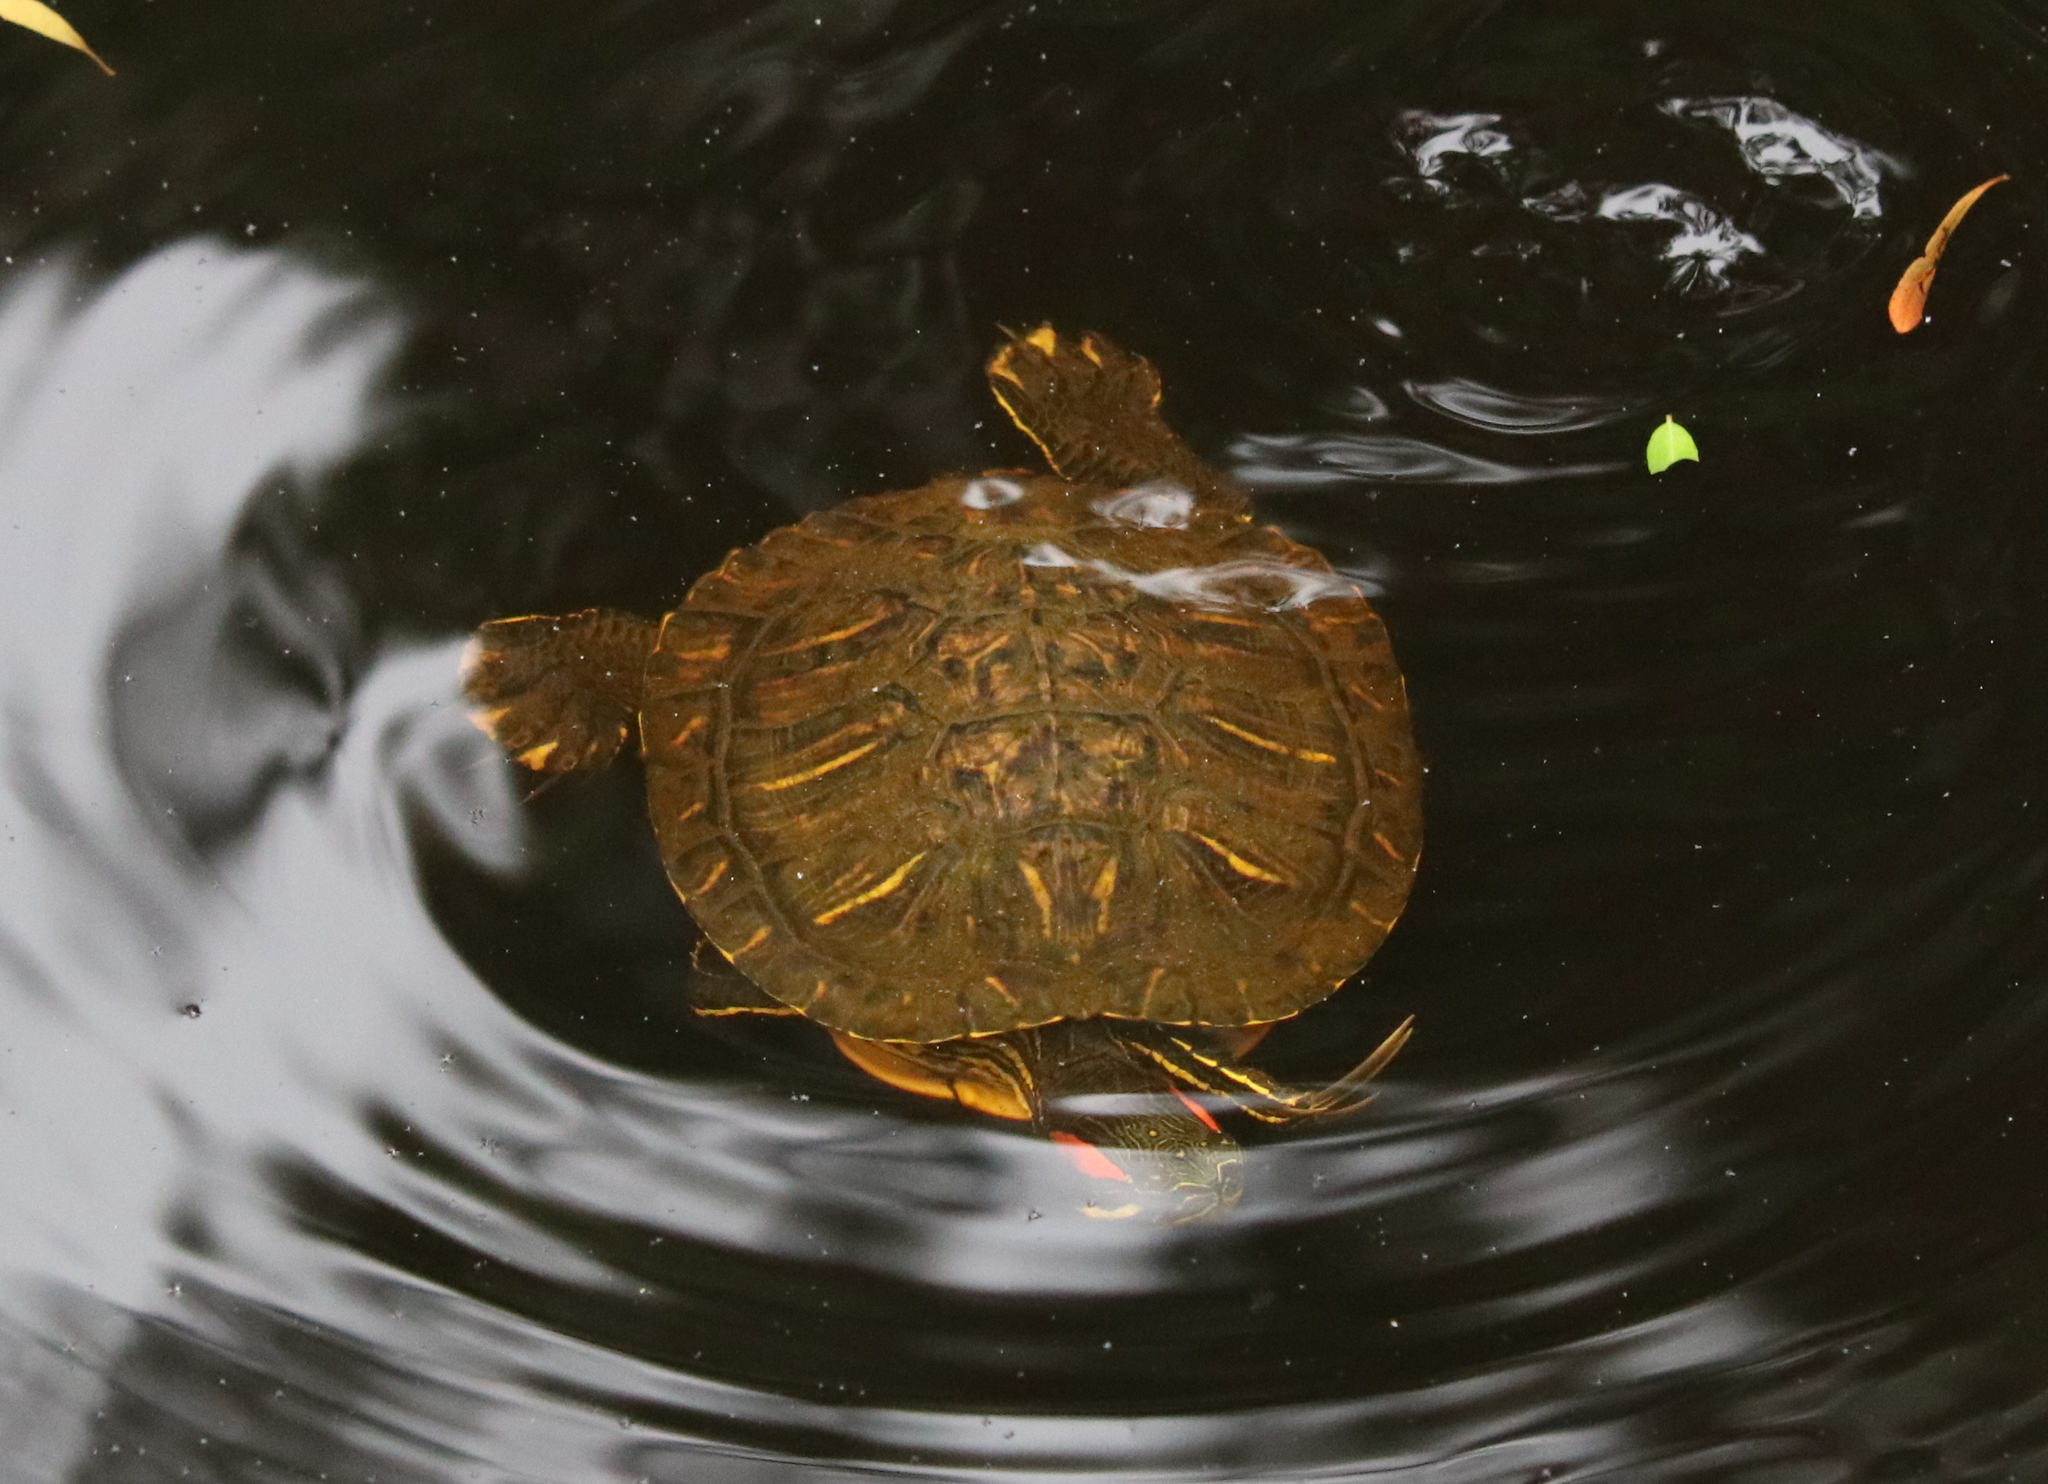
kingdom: Animalia
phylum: Chordata
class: Testudines
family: Emydidae
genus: Trachemys
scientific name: Trachemys scripta
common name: Slider
